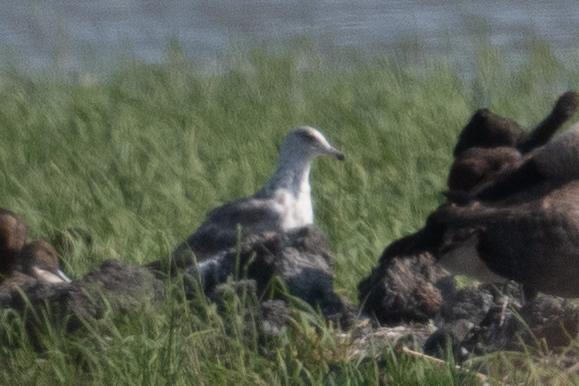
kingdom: Animalia
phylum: Chordata
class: Aves
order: Charadriiformes
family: Laridae
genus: Larus
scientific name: Larus californicus
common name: California gull
